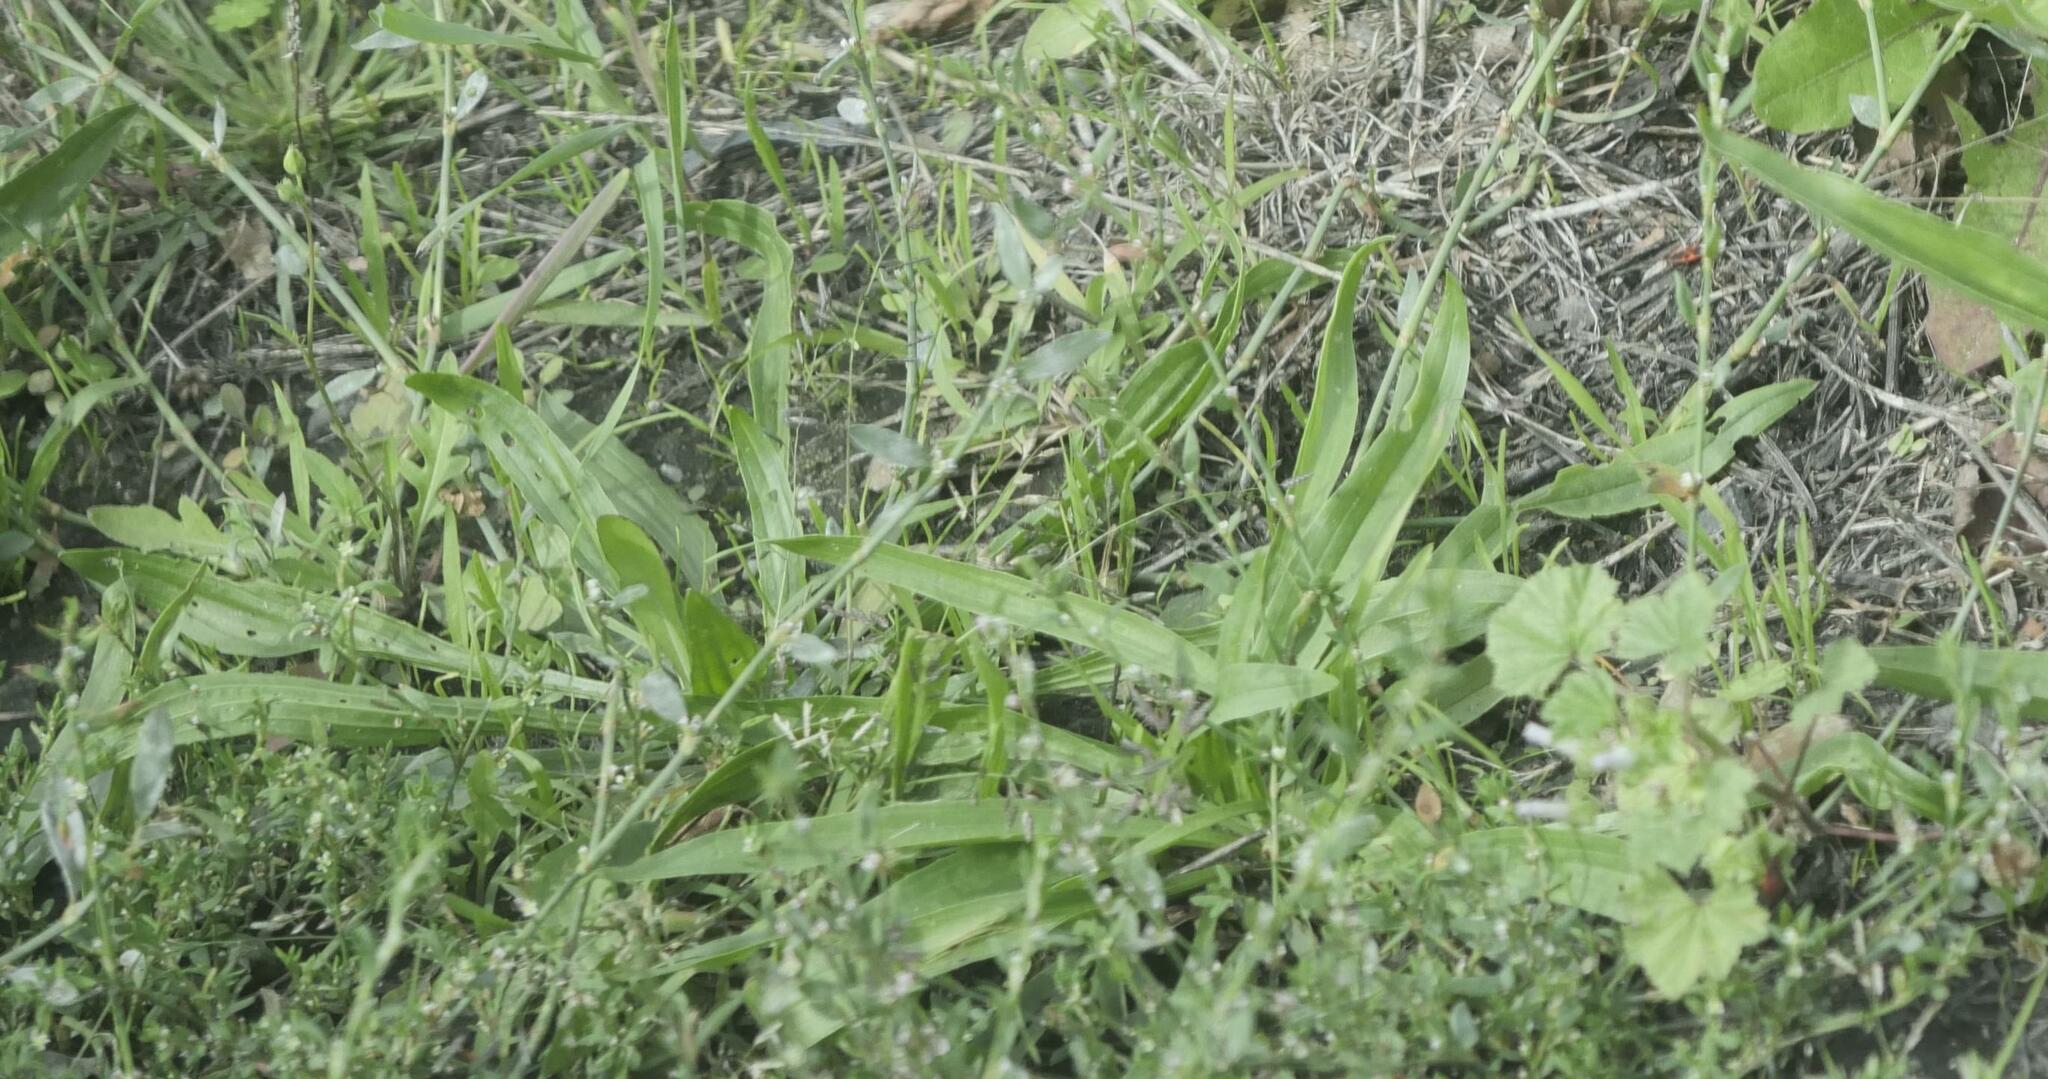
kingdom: Plantae
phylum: Tracheophyta
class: Magnoliopsida
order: Lamiales
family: Plantaginaceae
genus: Plantago
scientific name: Plantago lanceolata
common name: Ribwort plantain
